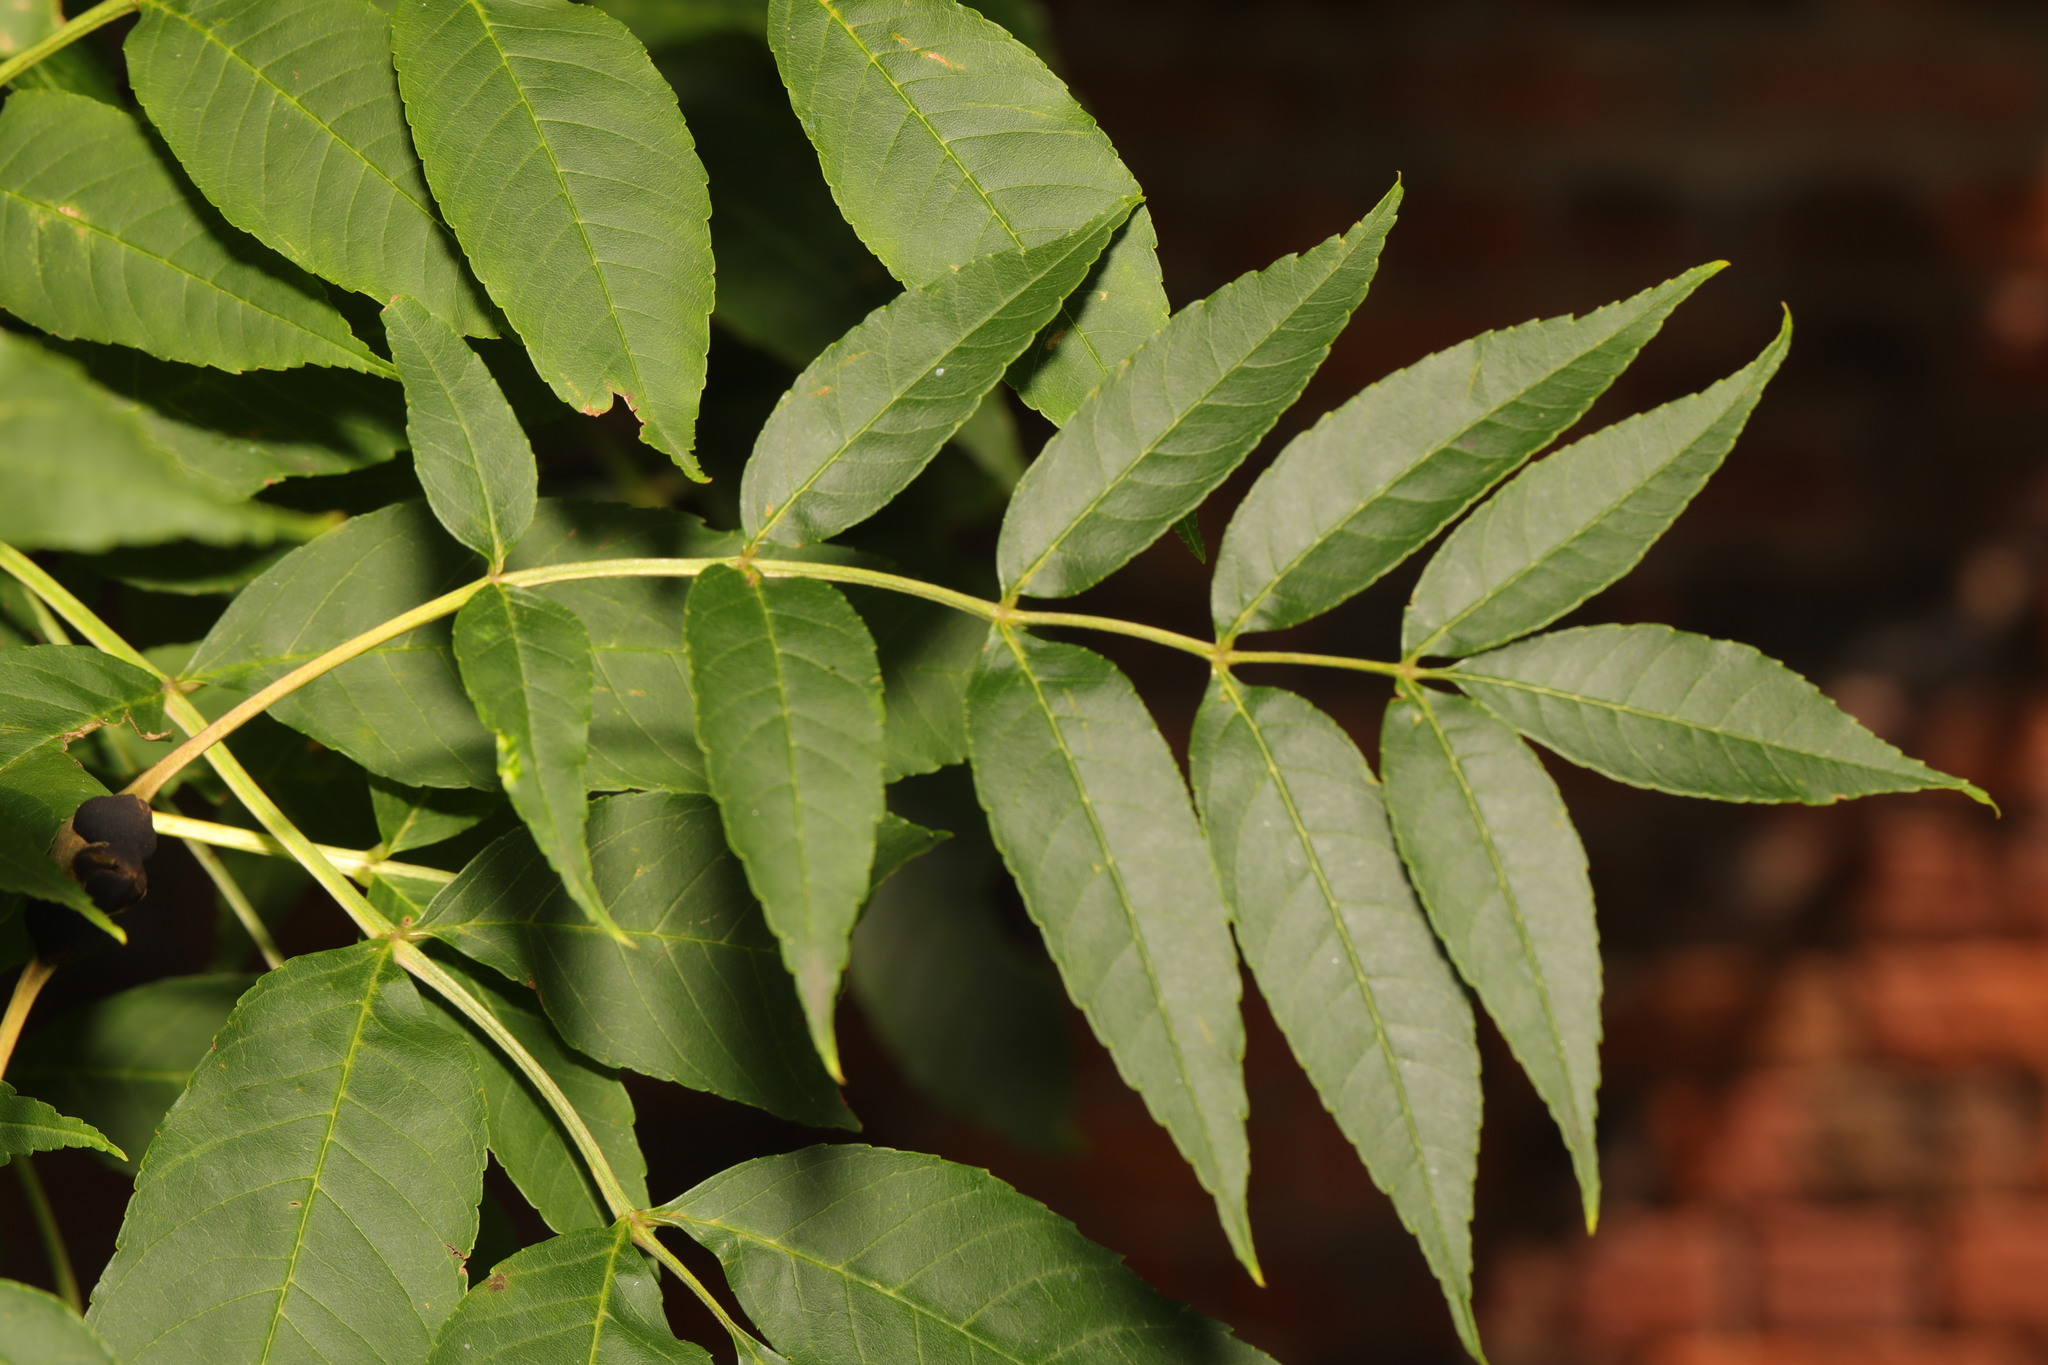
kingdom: Plantae
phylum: Tracheophyta
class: Magnoliopsida
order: Lamiales
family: Oleaceae
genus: Fraxinus
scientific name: Fraxinus excelsior
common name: European ash
